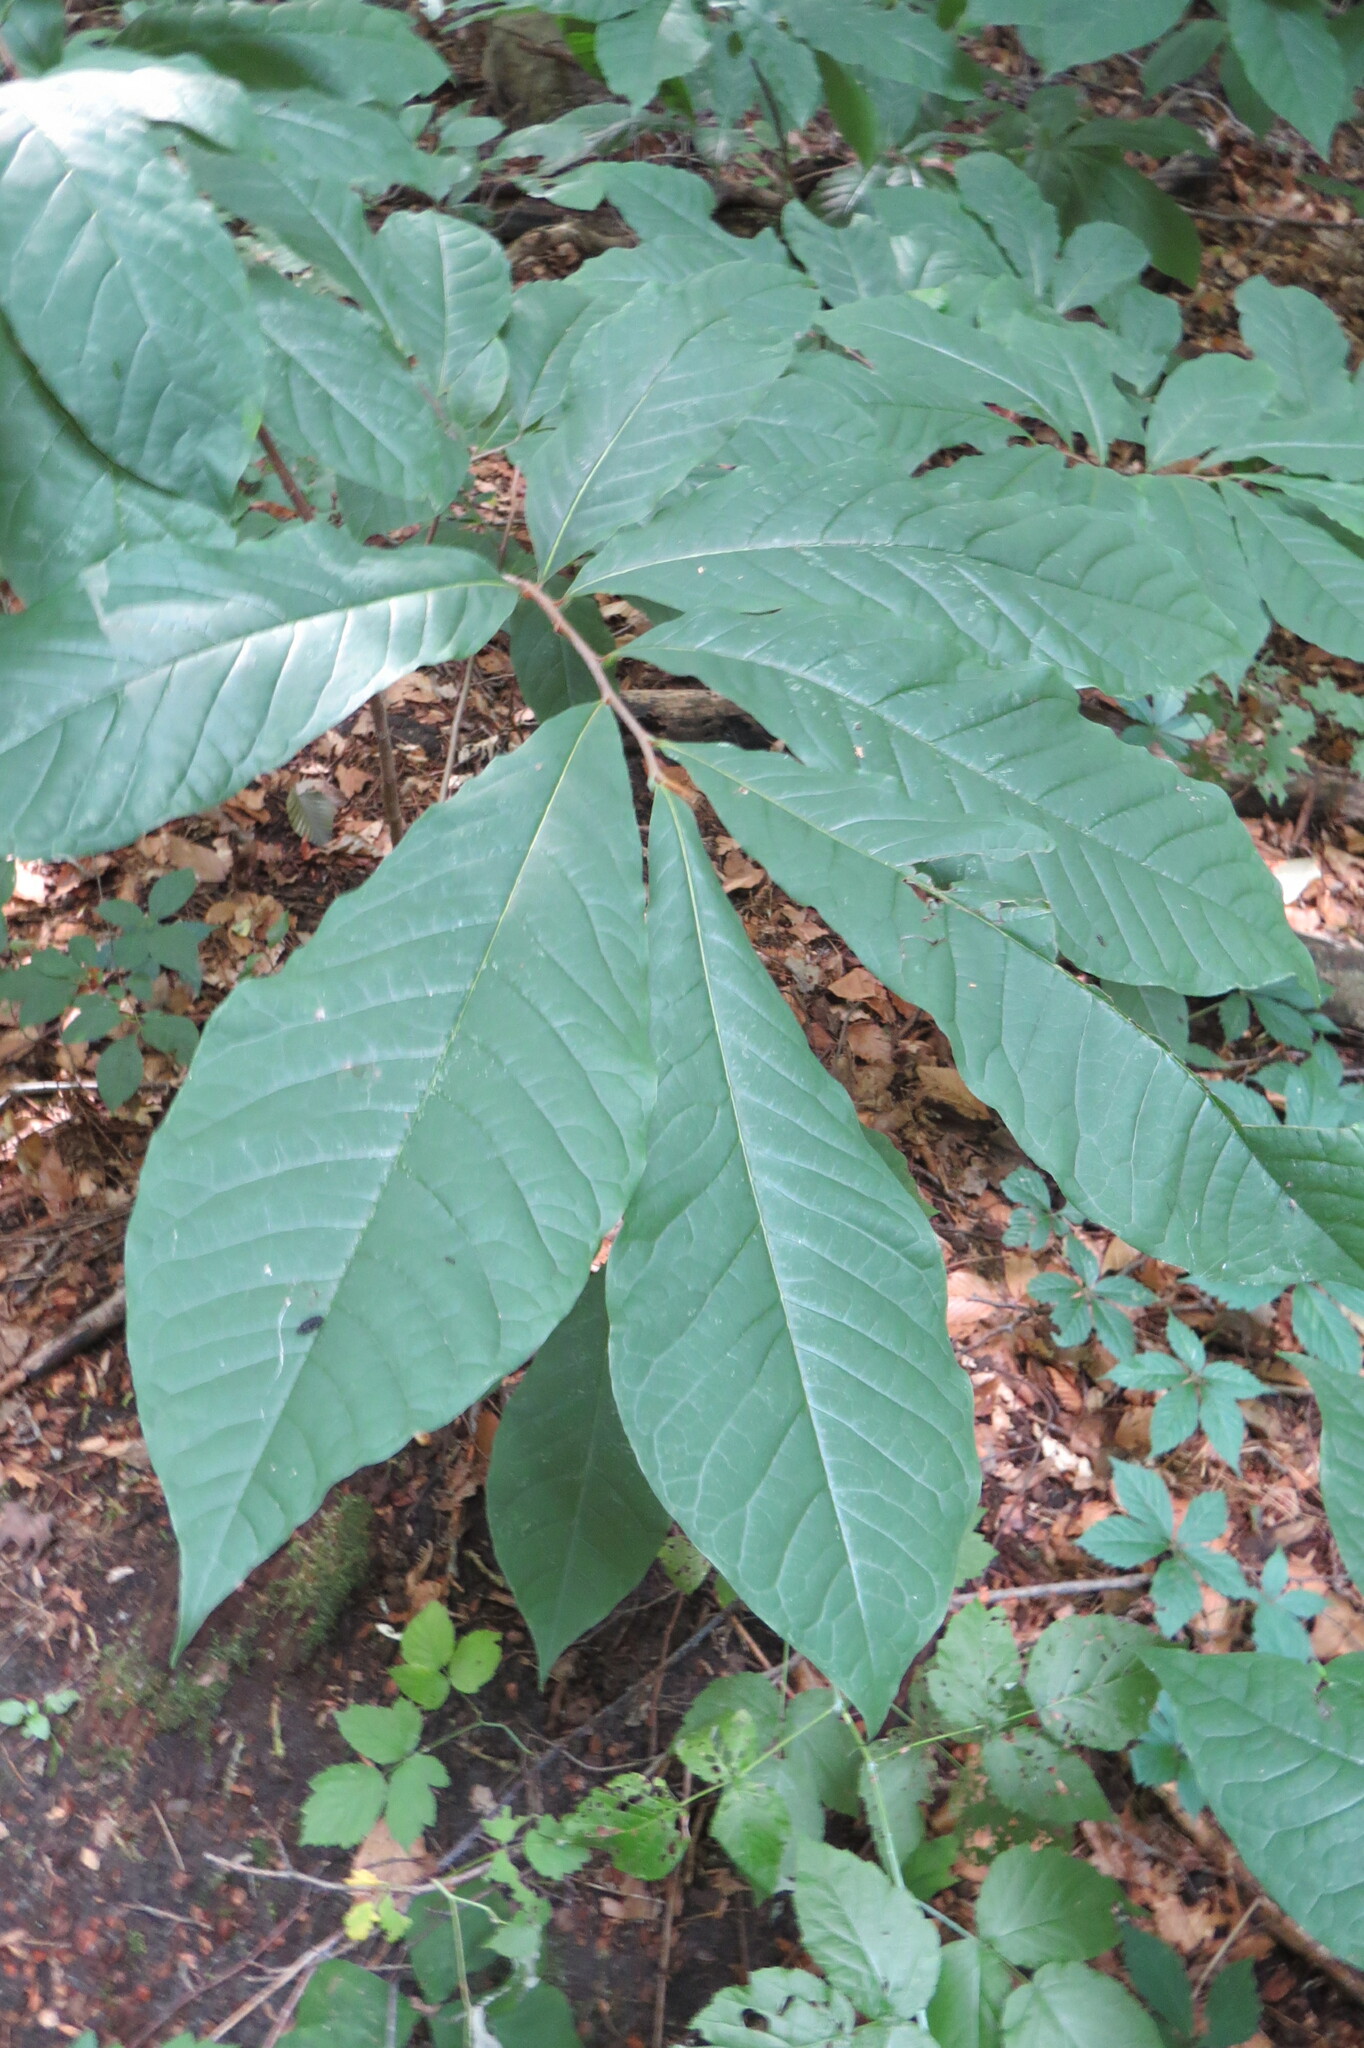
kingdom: Plantae
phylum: Tracheophyta
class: Magnoliopsida
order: Magnoliales
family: Annonaceae
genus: Asimina
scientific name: Asimina triloba
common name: Dog-banana
